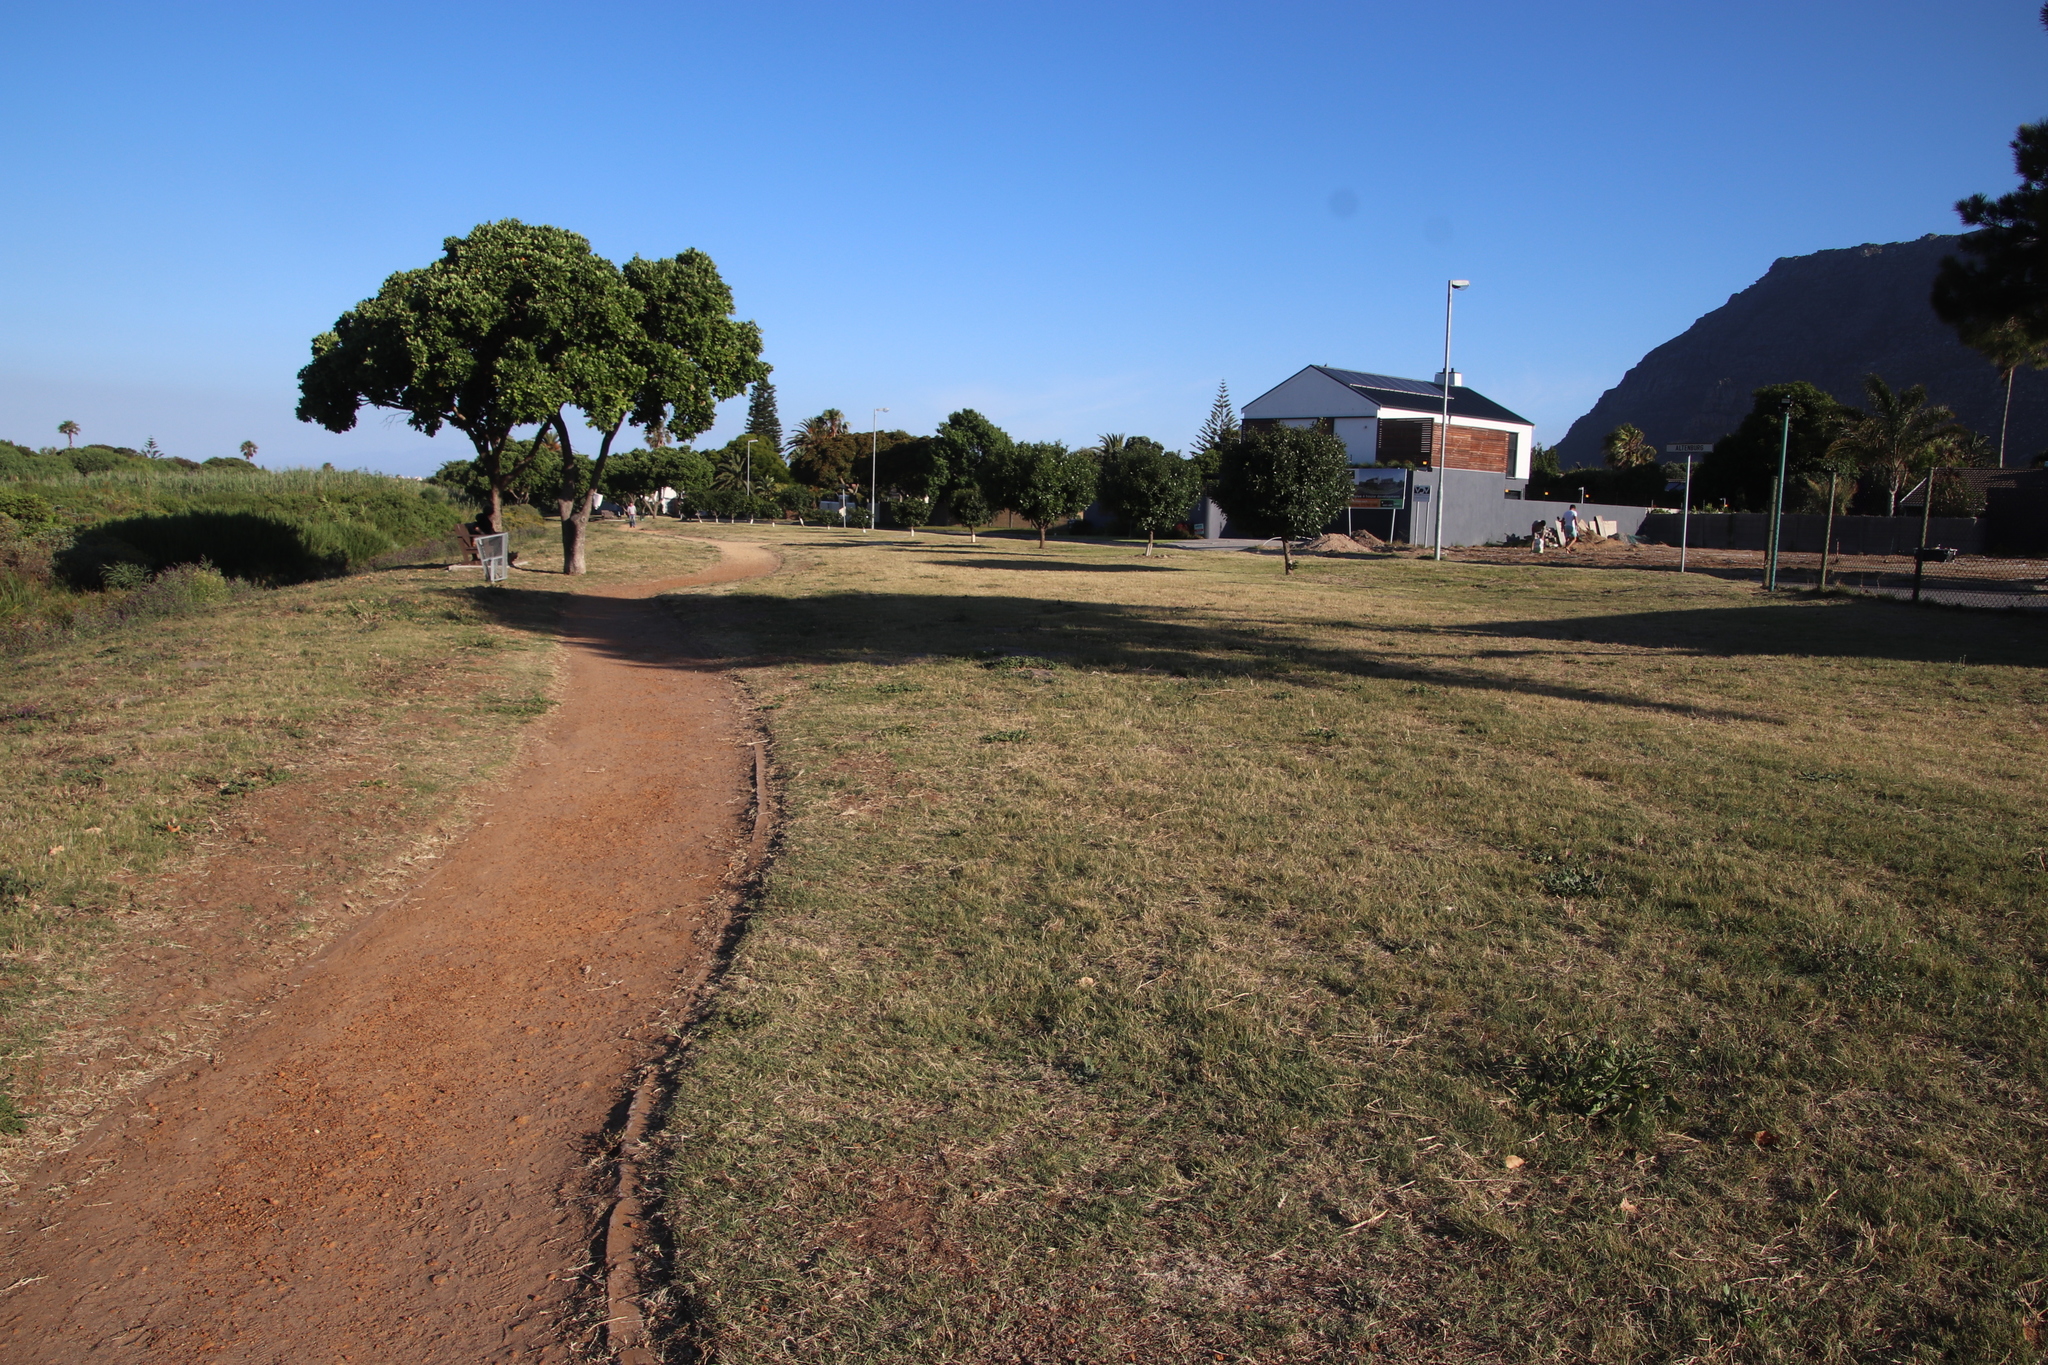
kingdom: Plantae
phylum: Tracheophyta
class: Liliopsida
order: Poales
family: Poaceae
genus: Cynodon
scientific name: Cynodon dactylon
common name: Bermuda grass
